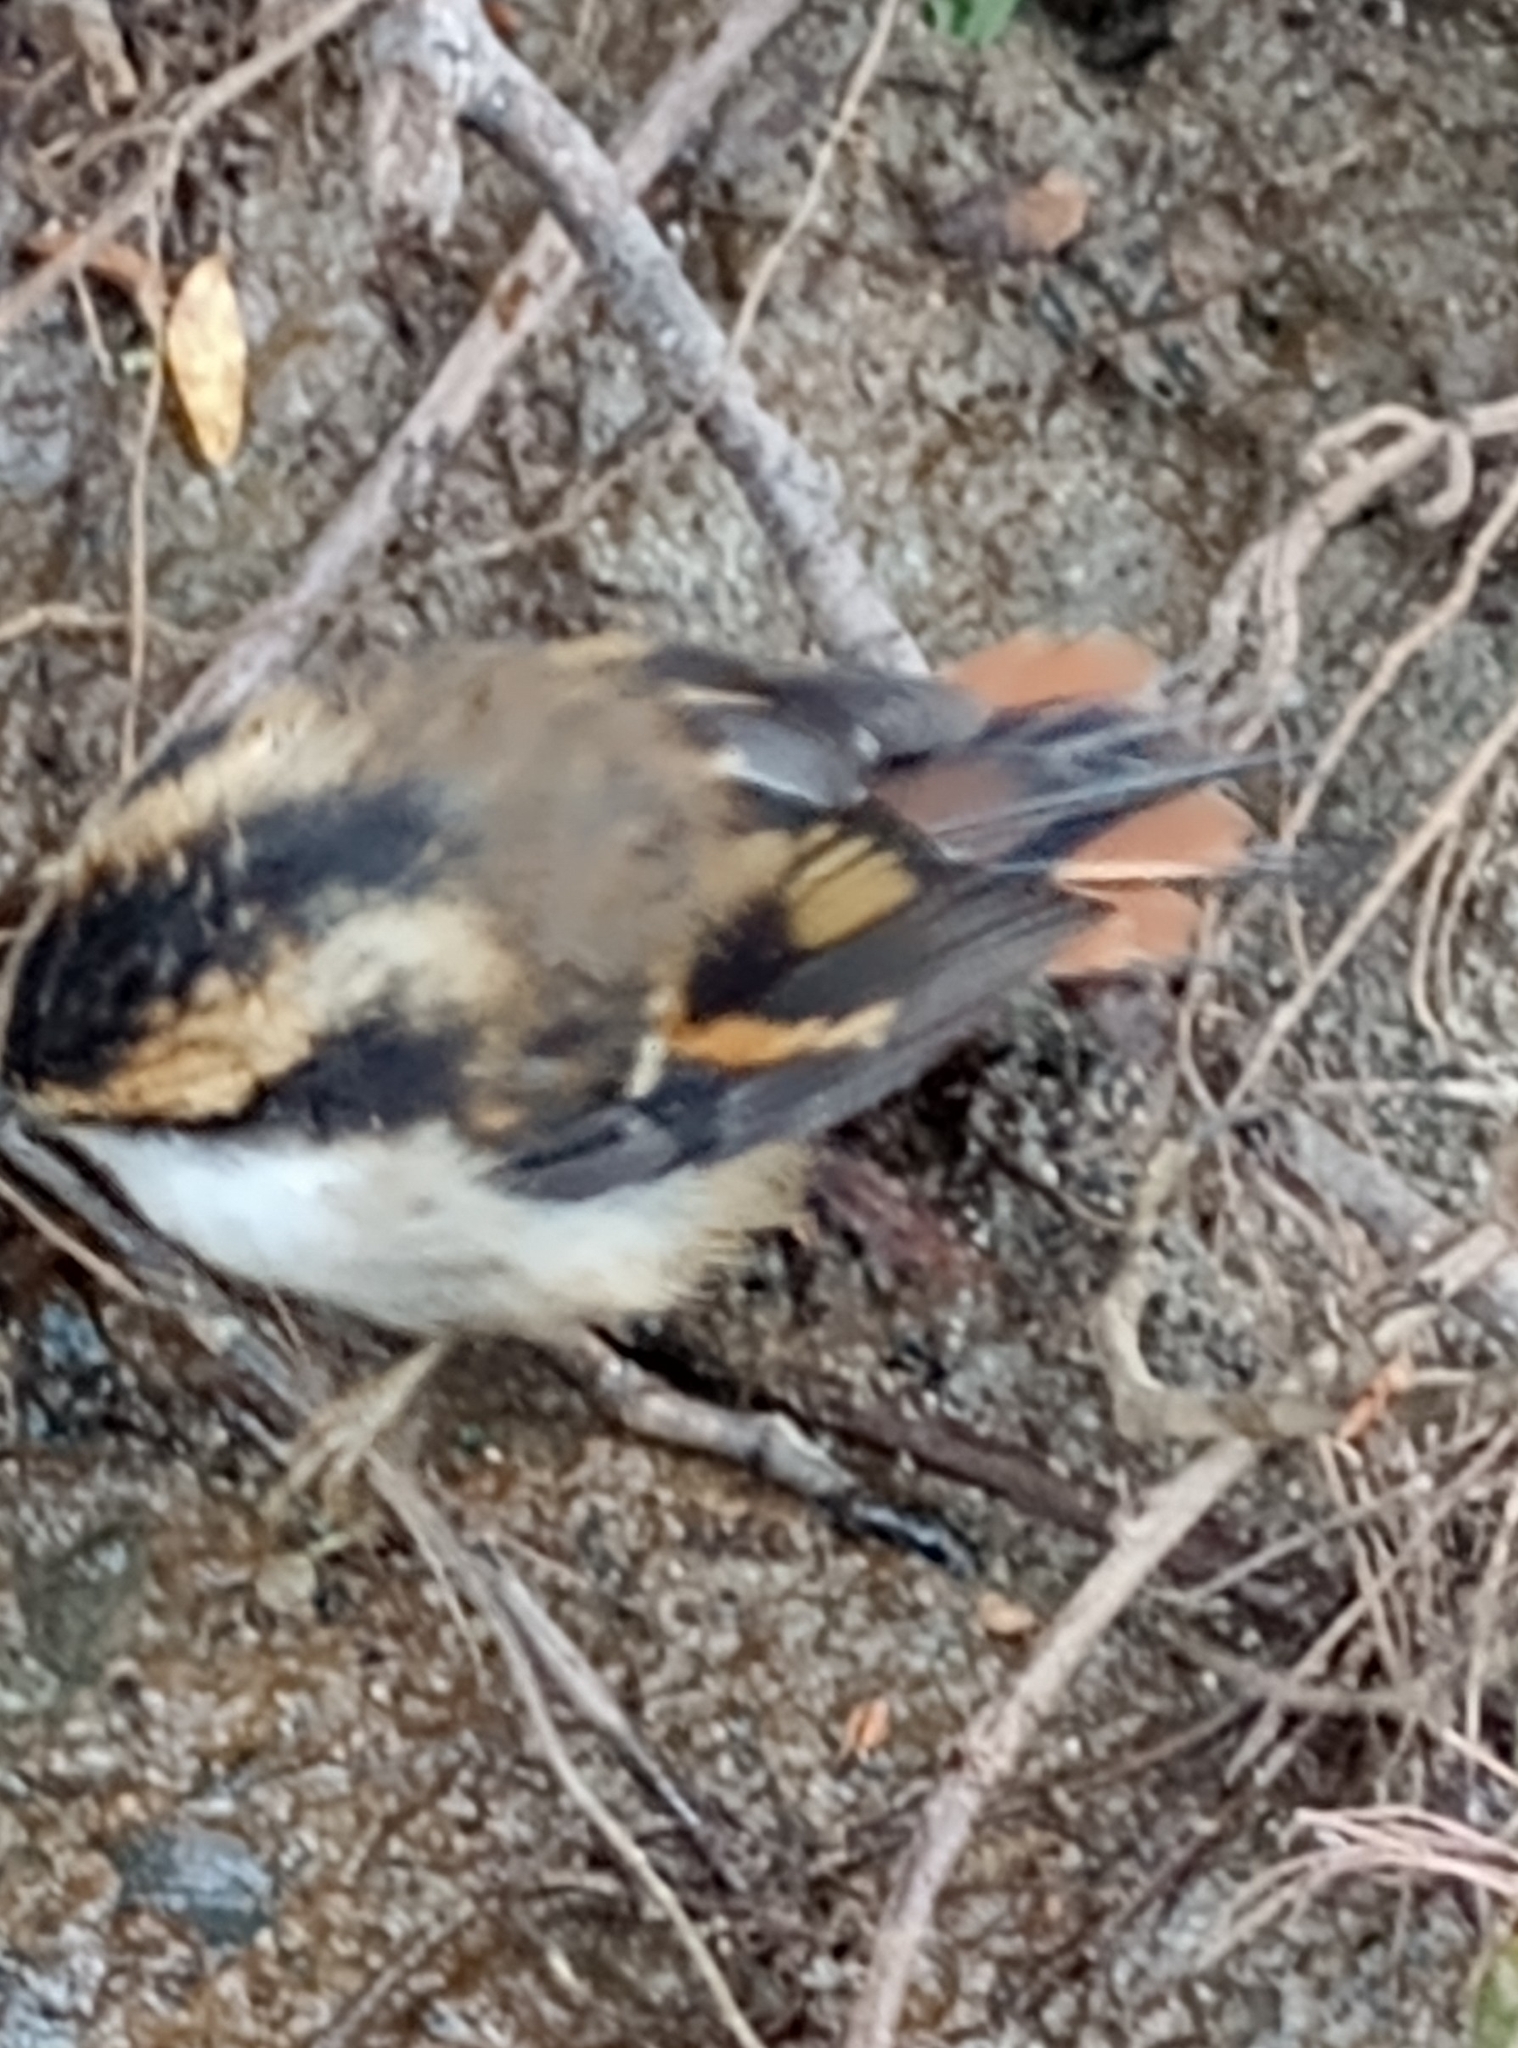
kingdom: Animalia
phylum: Chordata
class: Aves
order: Passeriformes
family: Furnariidae
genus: Aphrastura
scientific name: Aphrastura spinicauda
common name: Thorn-tailed rayadito
